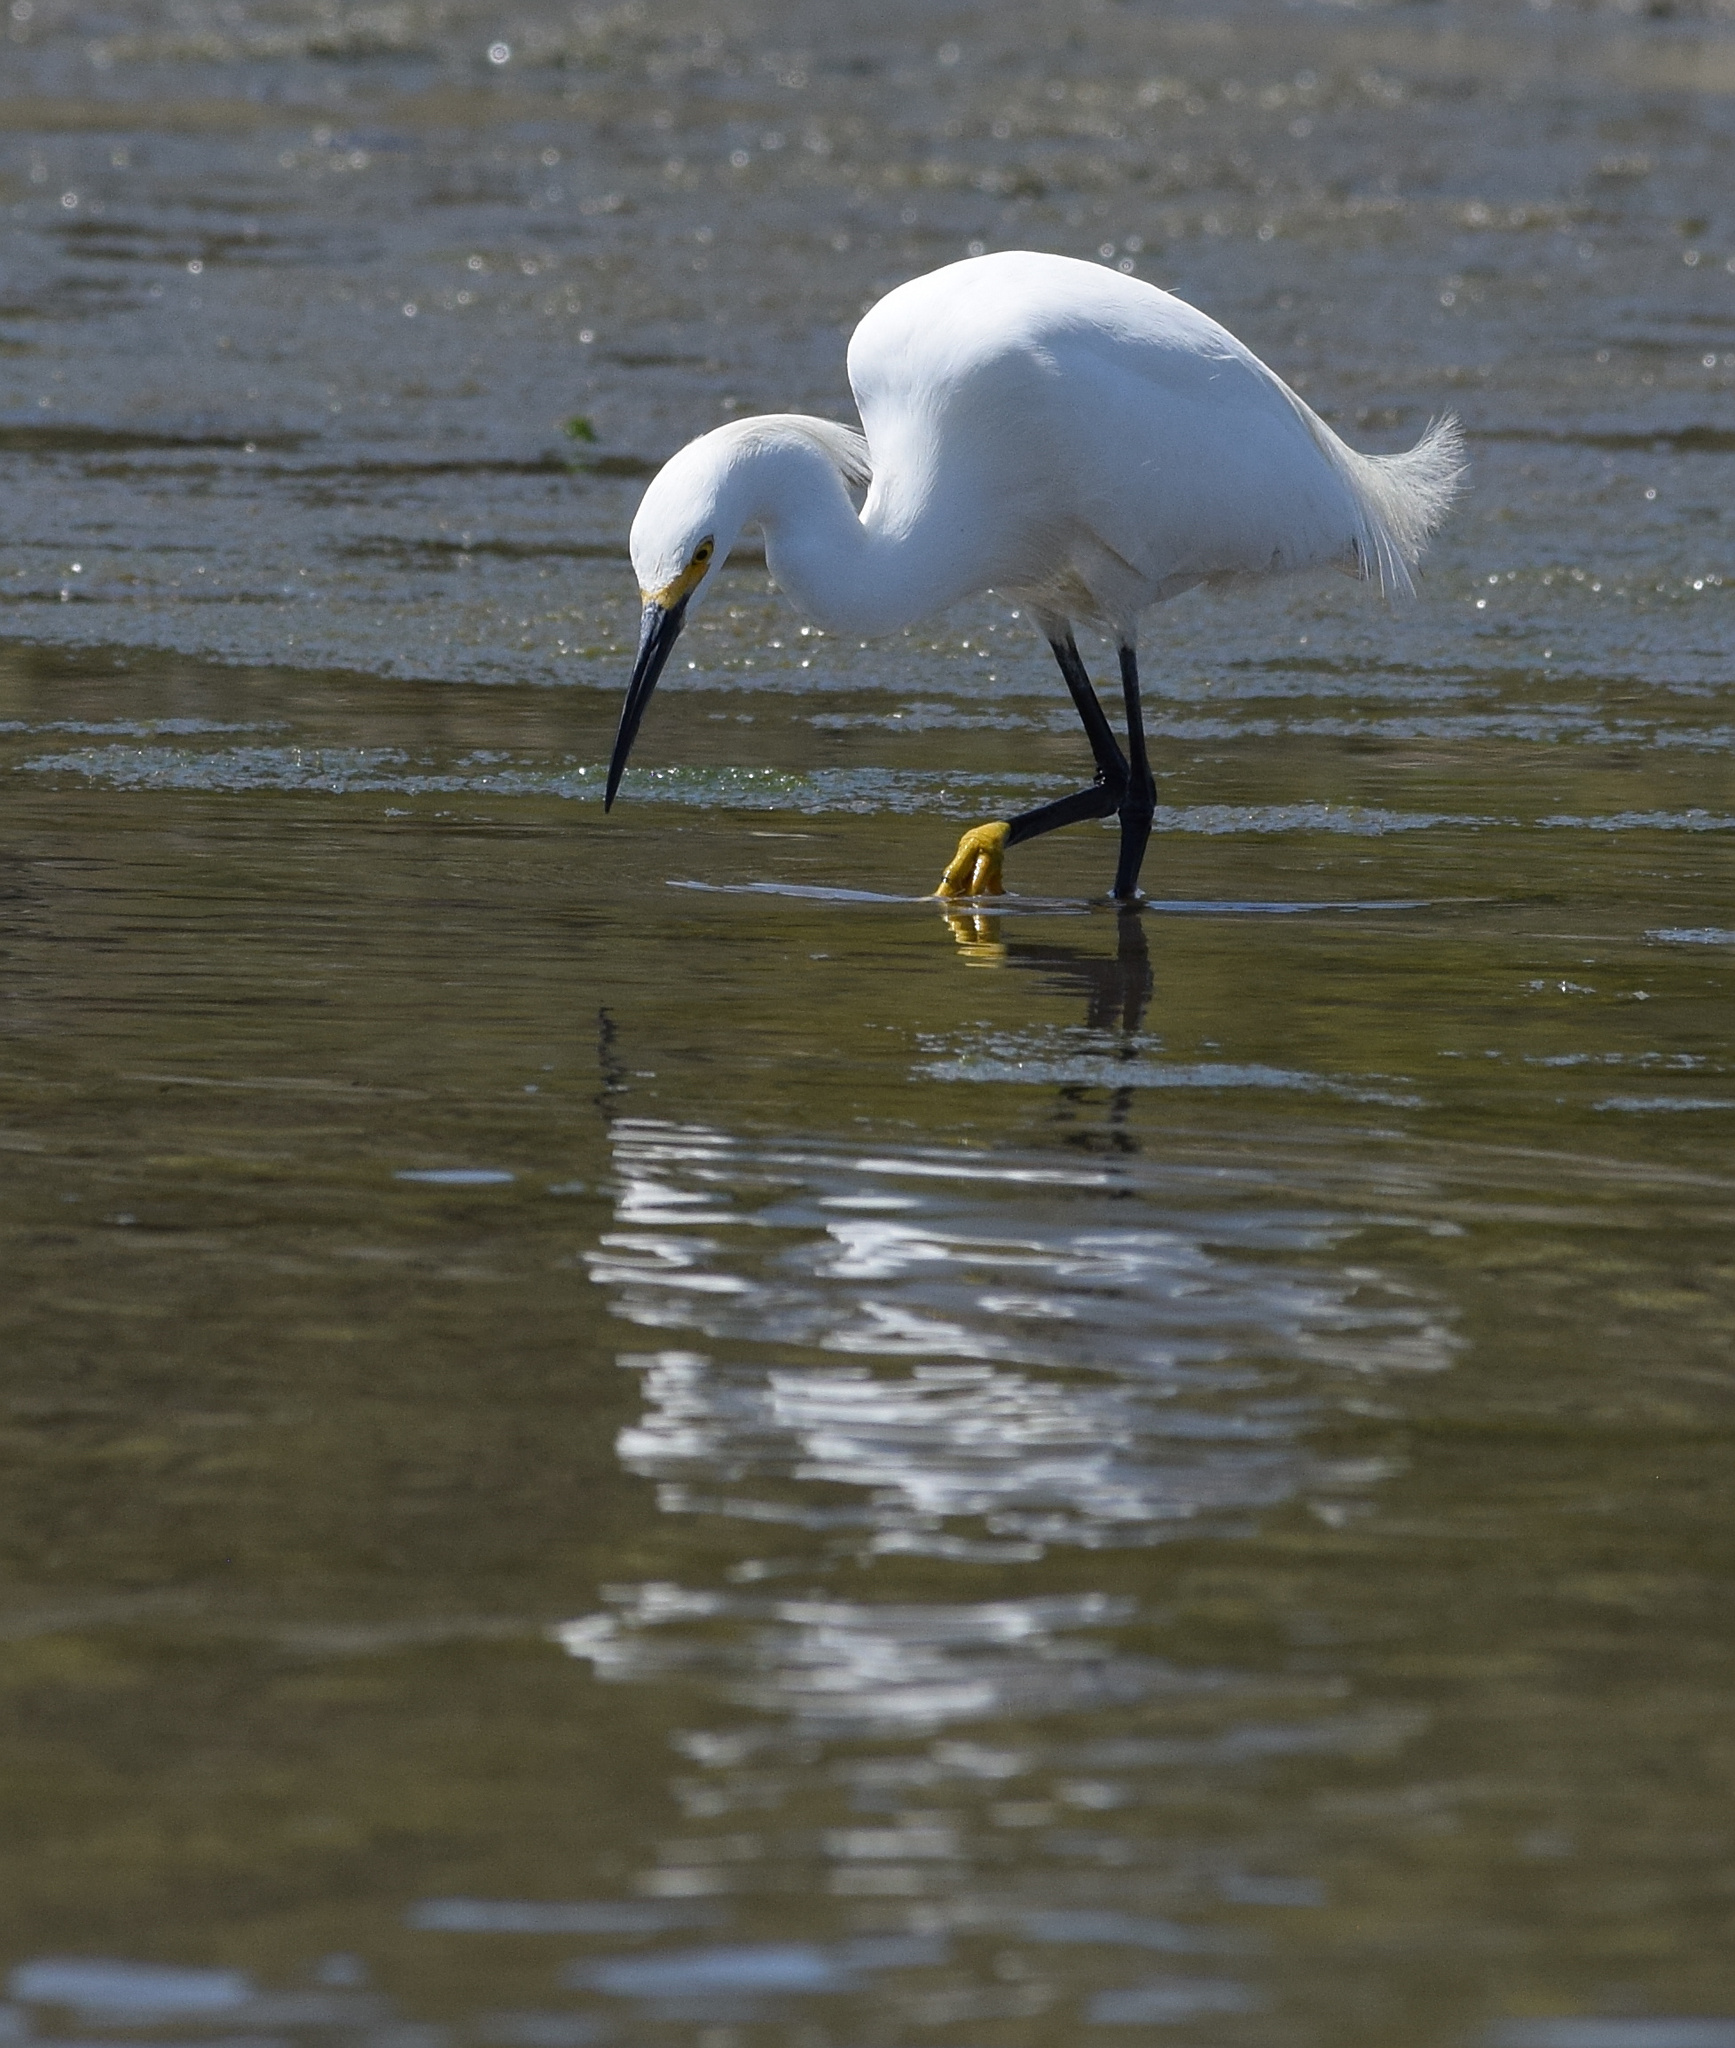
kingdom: Animalia
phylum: Chordata
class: Aves
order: Pelecaniformes
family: Ardeidae
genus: Egretta
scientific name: Egretta thula
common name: Snowy egret
